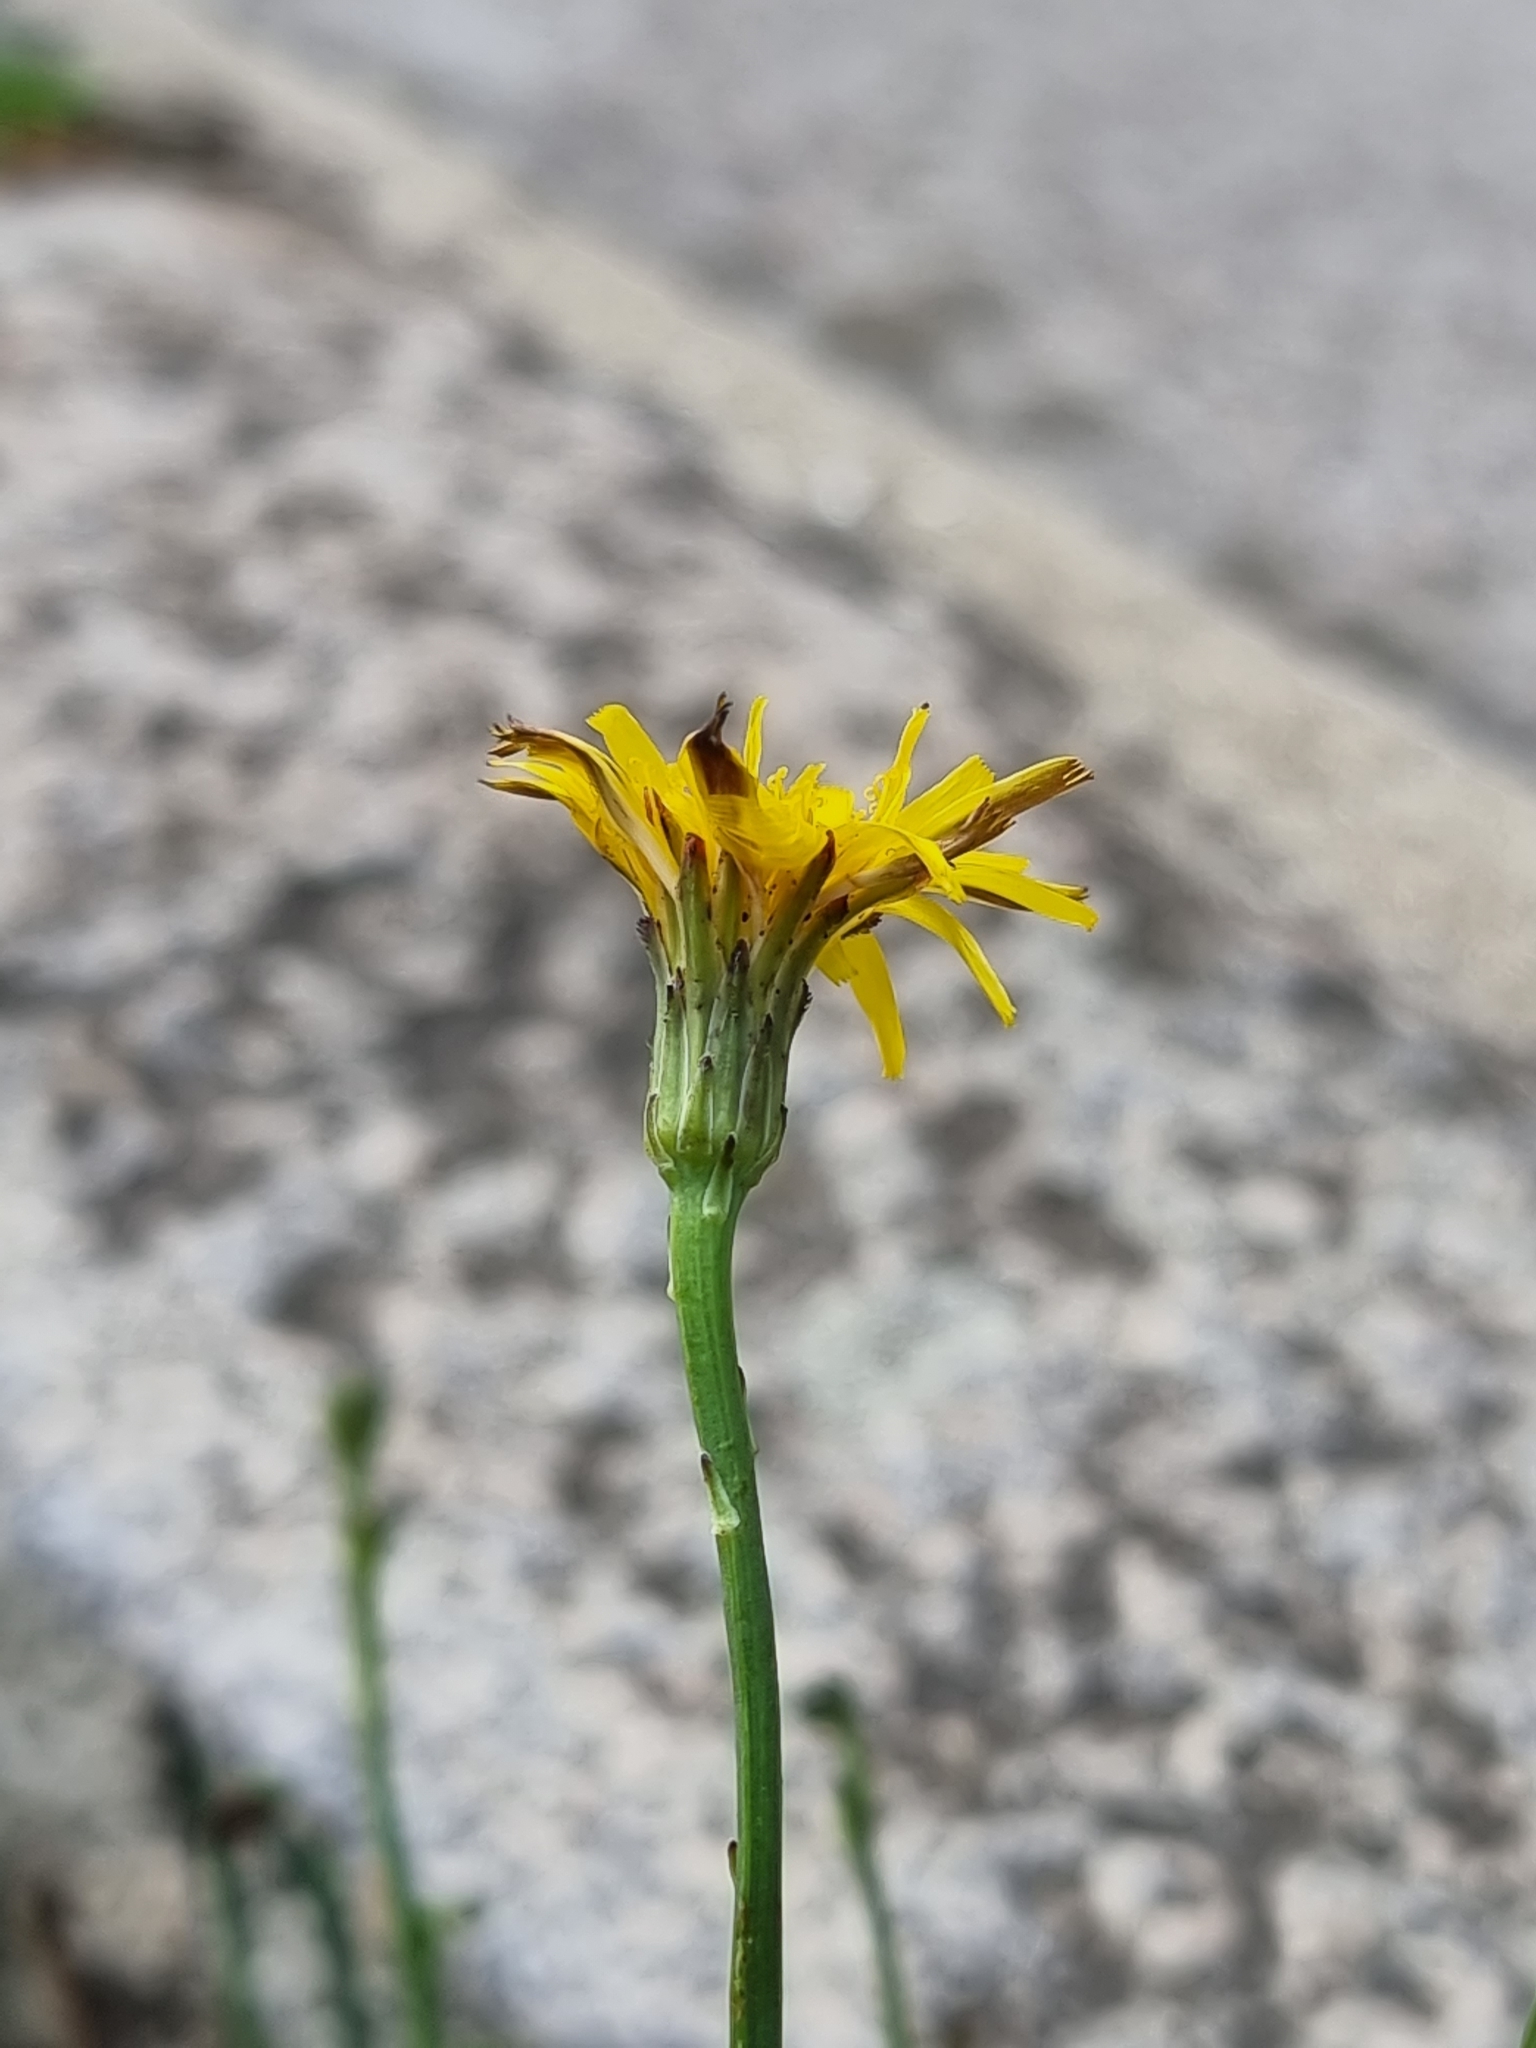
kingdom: Plantae
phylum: Tracheophyta
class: Magnoliopsida
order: Asterales
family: Asteraceae
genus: Hypochaeris
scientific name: Hypochaeris radicata
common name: Flatweed
